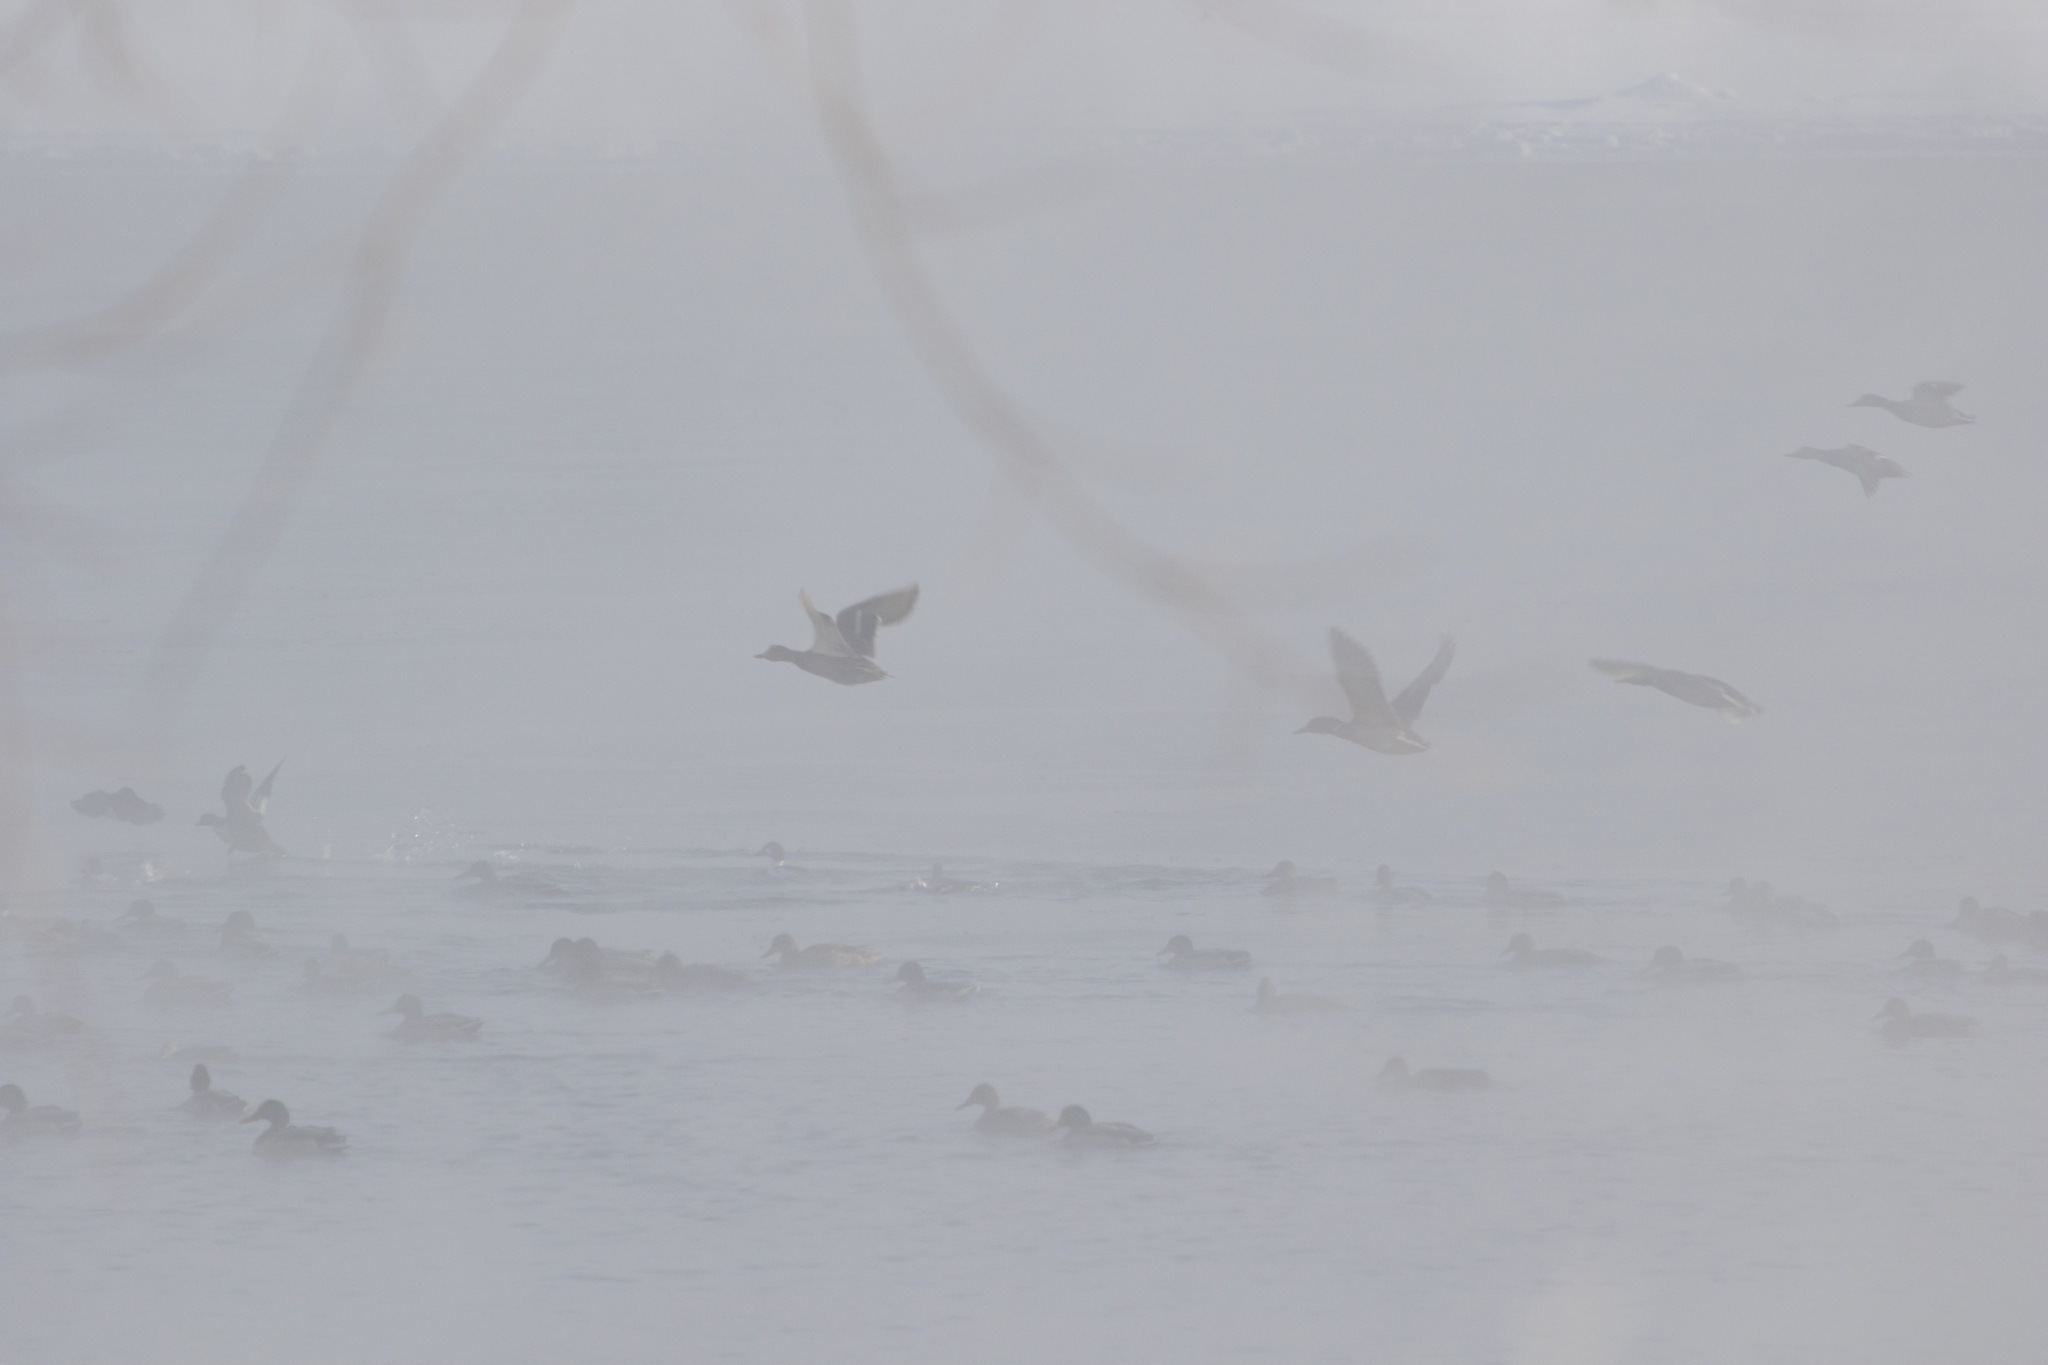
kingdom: Animalia
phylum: Chordata
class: Aves
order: Anseriformes
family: Anatidae
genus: Anas
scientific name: Anas platyrhynchos
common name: Mallard
